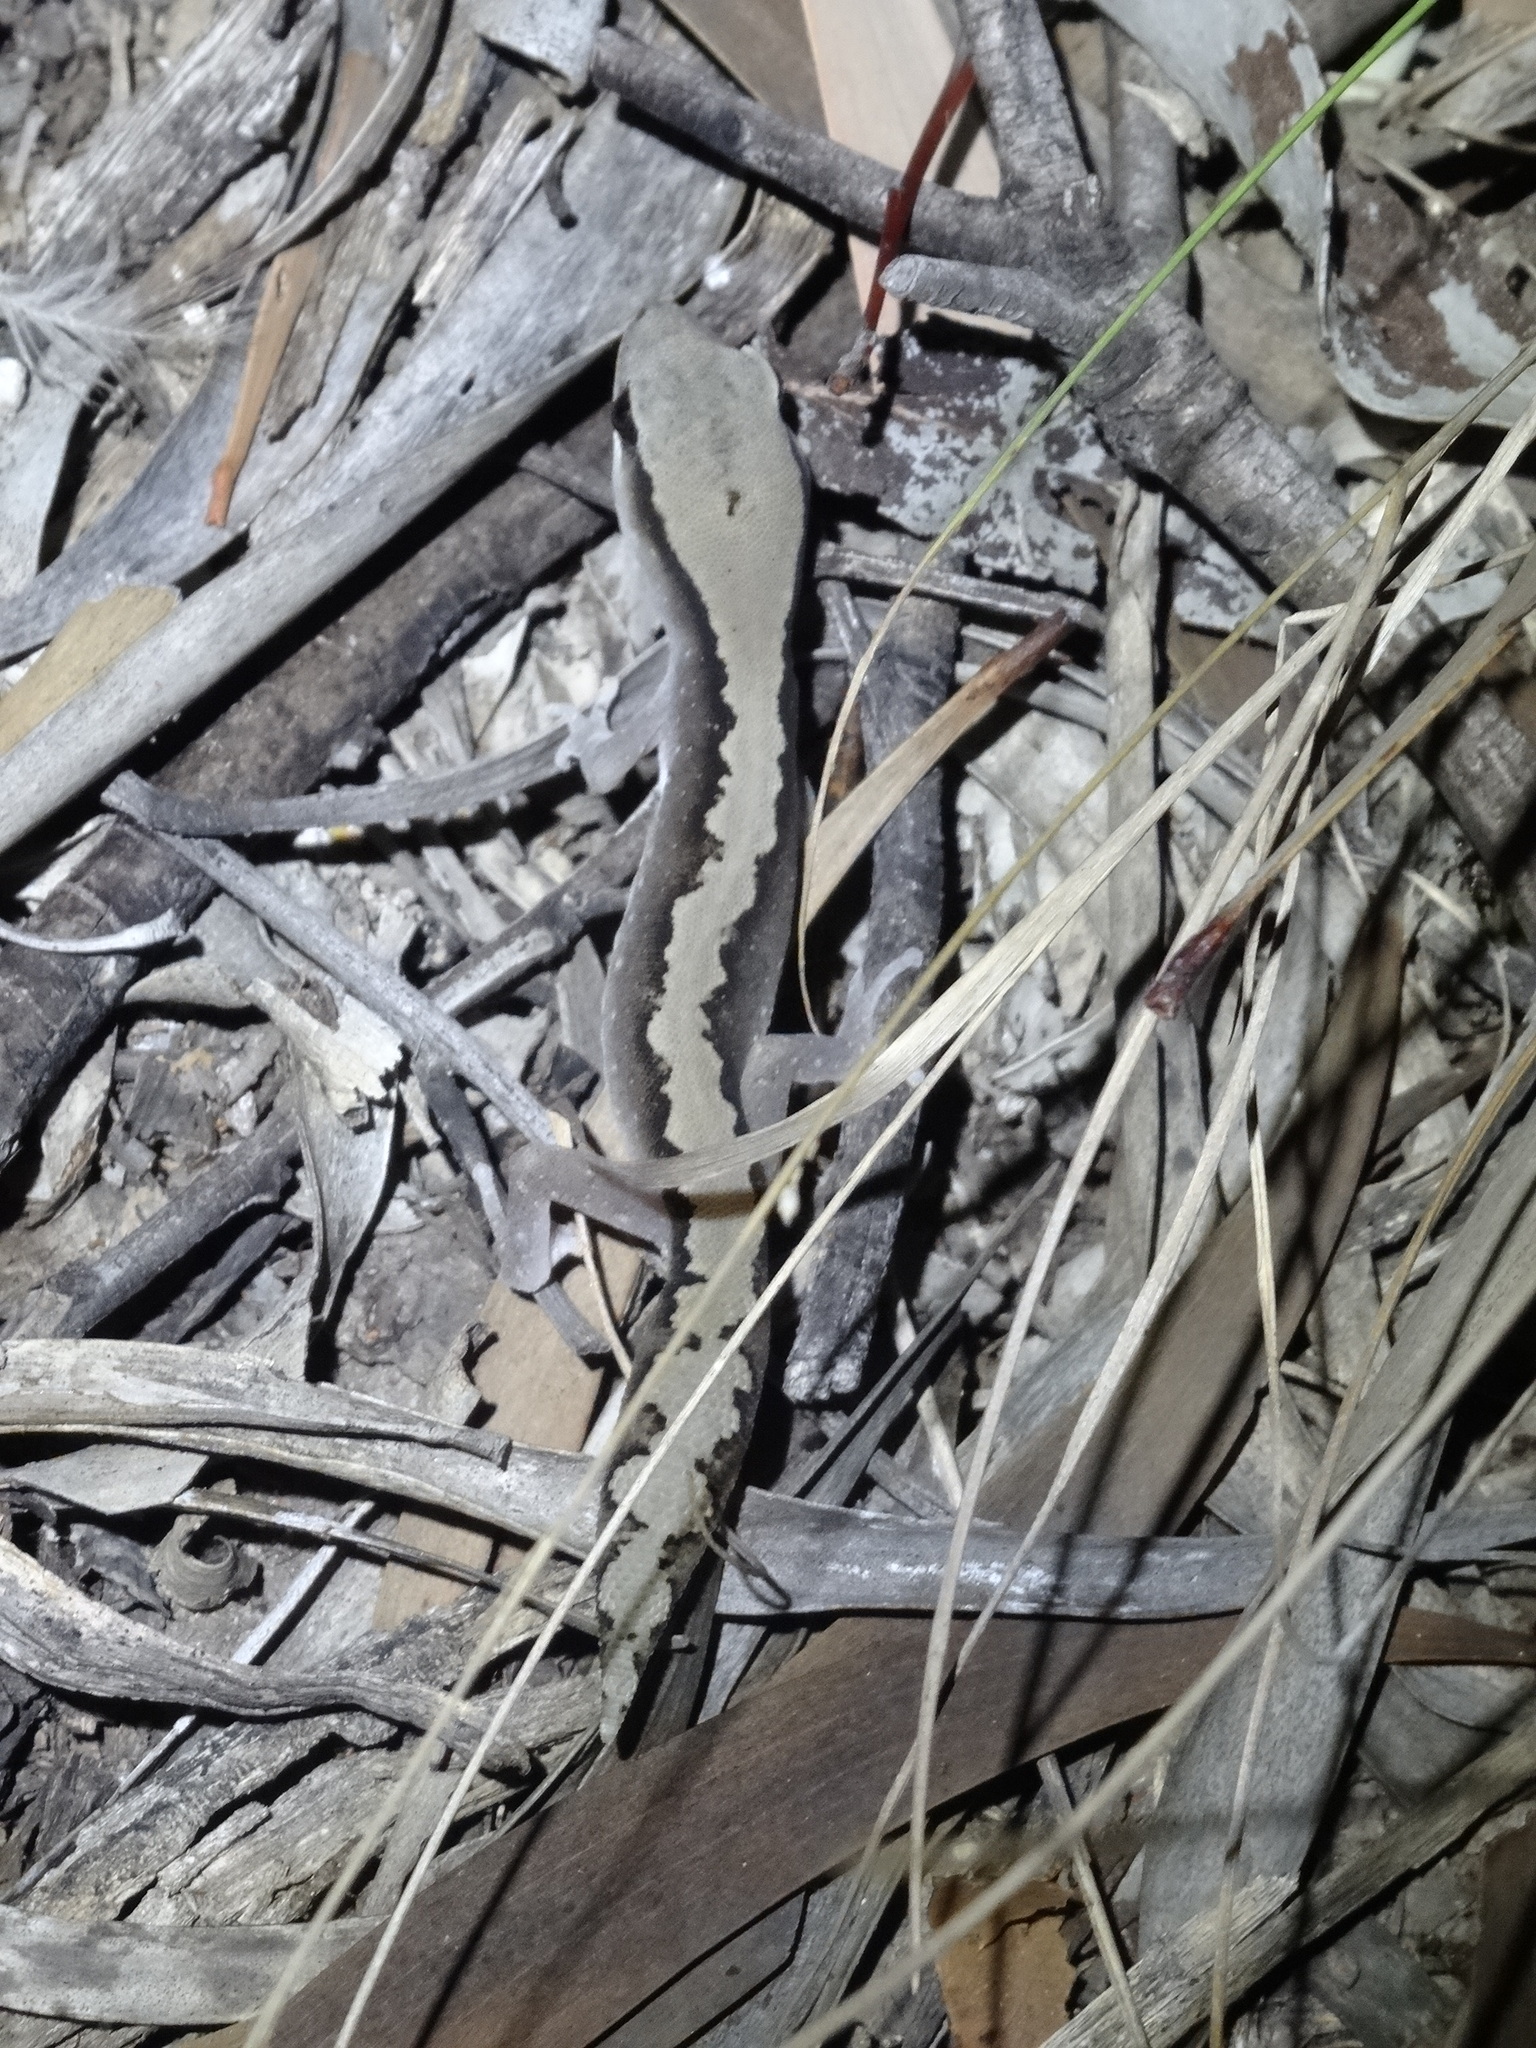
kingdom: Animalia
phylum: Chordata
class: Squamata
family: Diplodactylidae
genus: Diplodactylus
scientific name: Diplodactylus vittatus
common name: Eastern stone gecko
